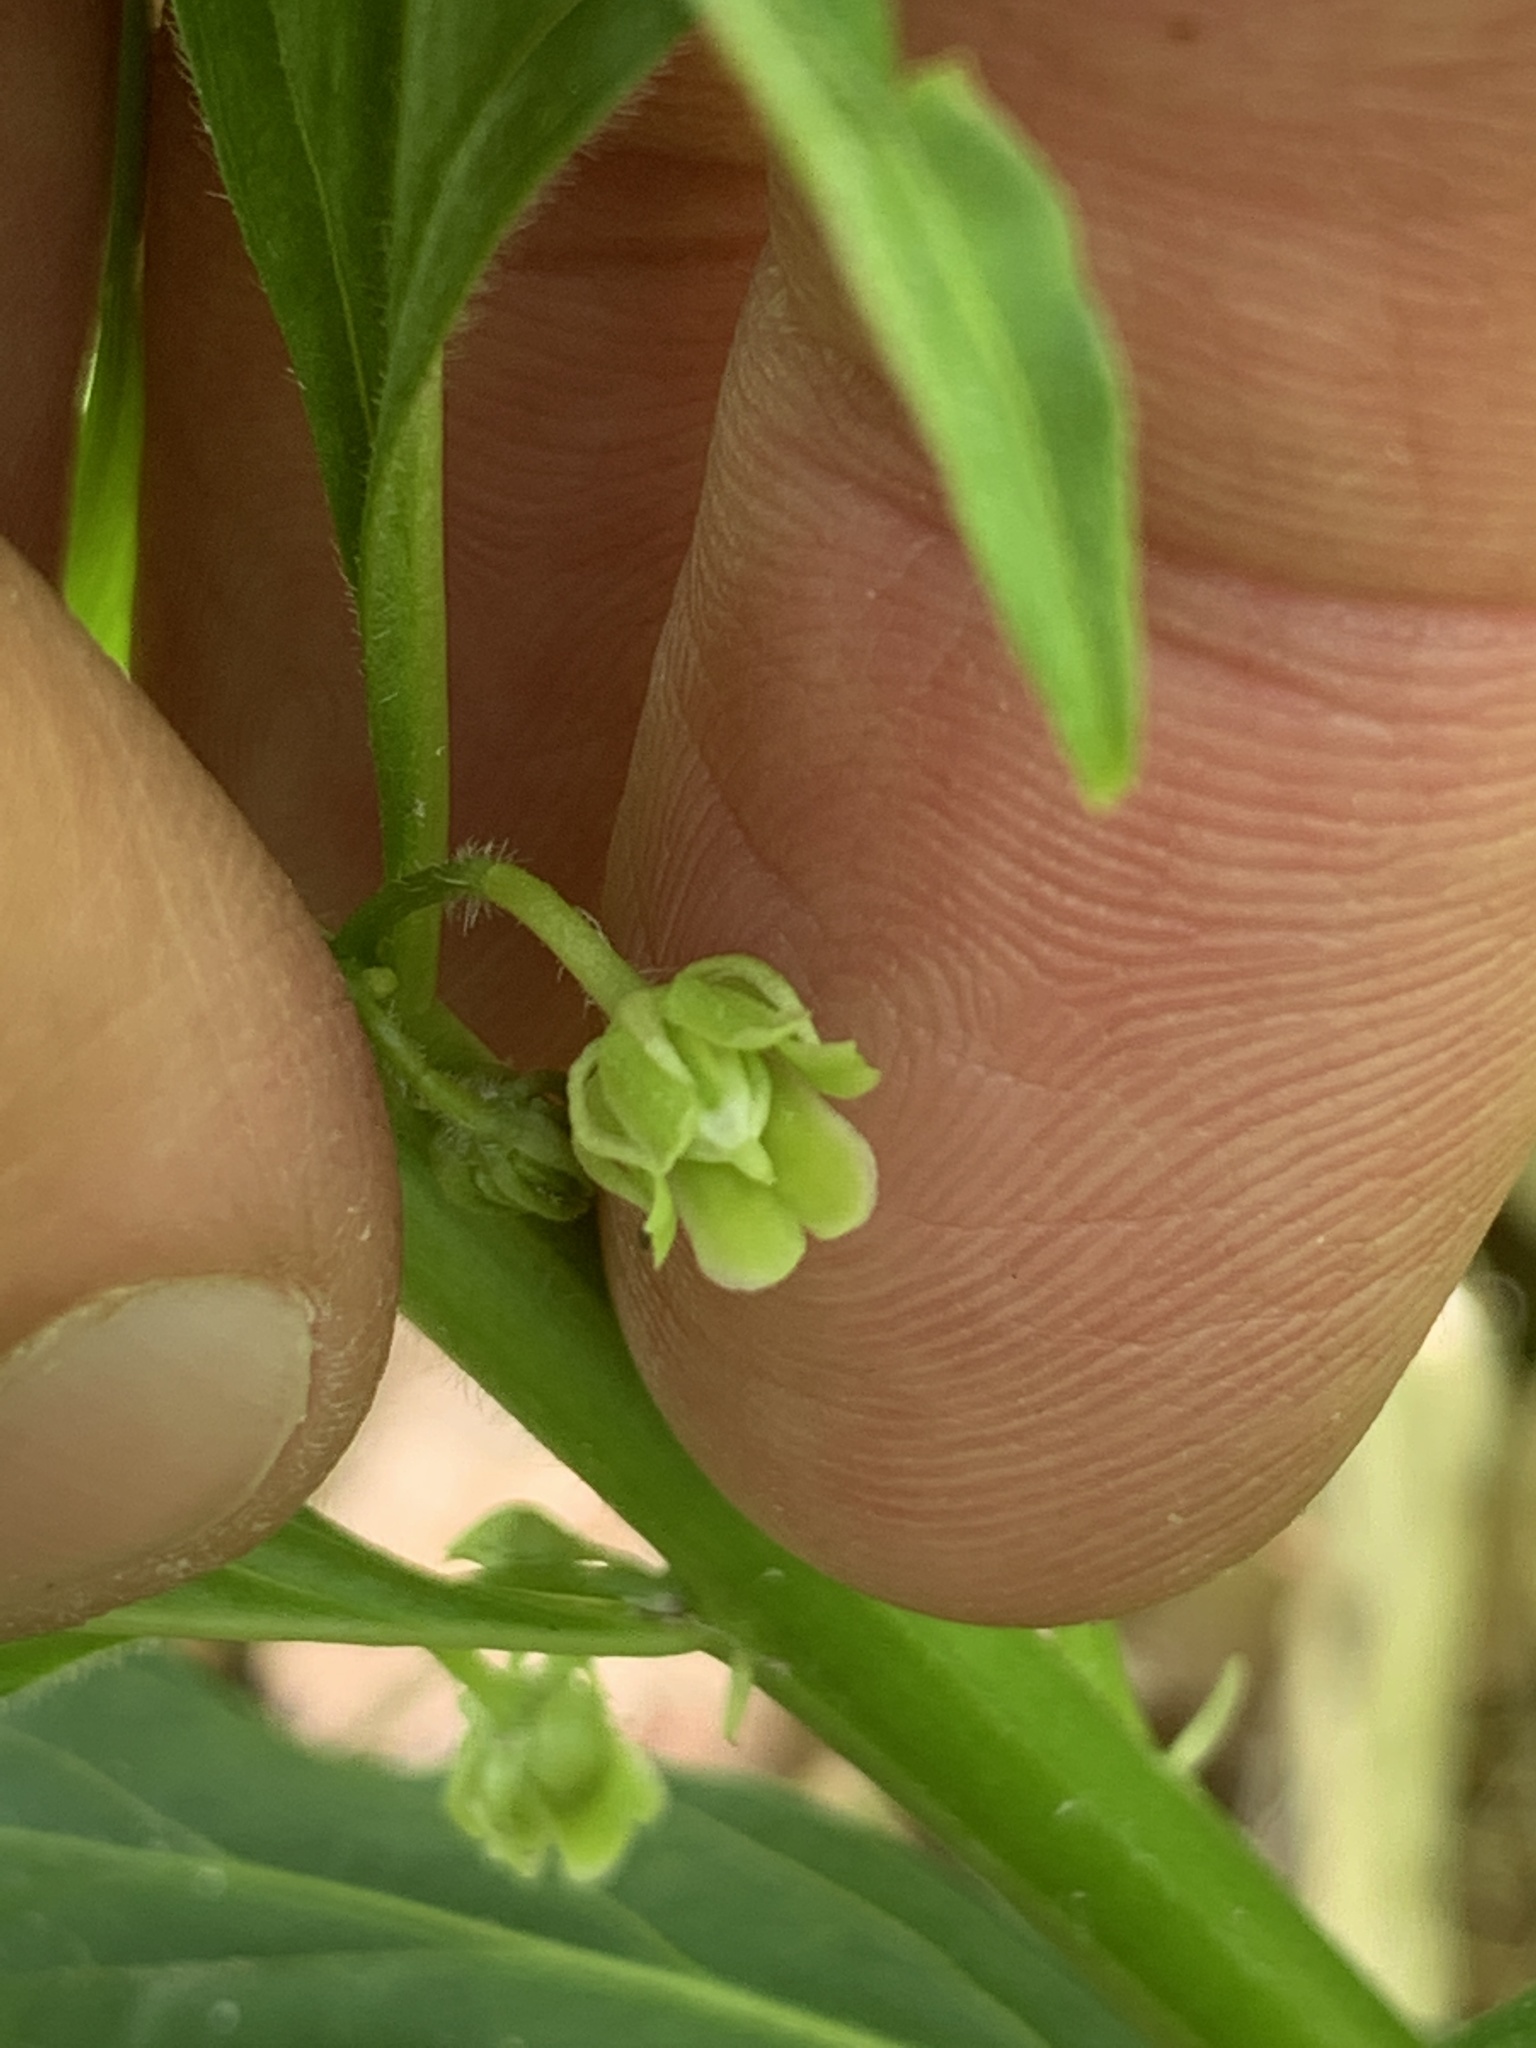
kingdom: Plantae
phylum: Tracheophyta
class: Magnoliopsida
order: Malpighiales
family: Violaceae
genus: Cubelium
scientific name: Cubelium concolor
